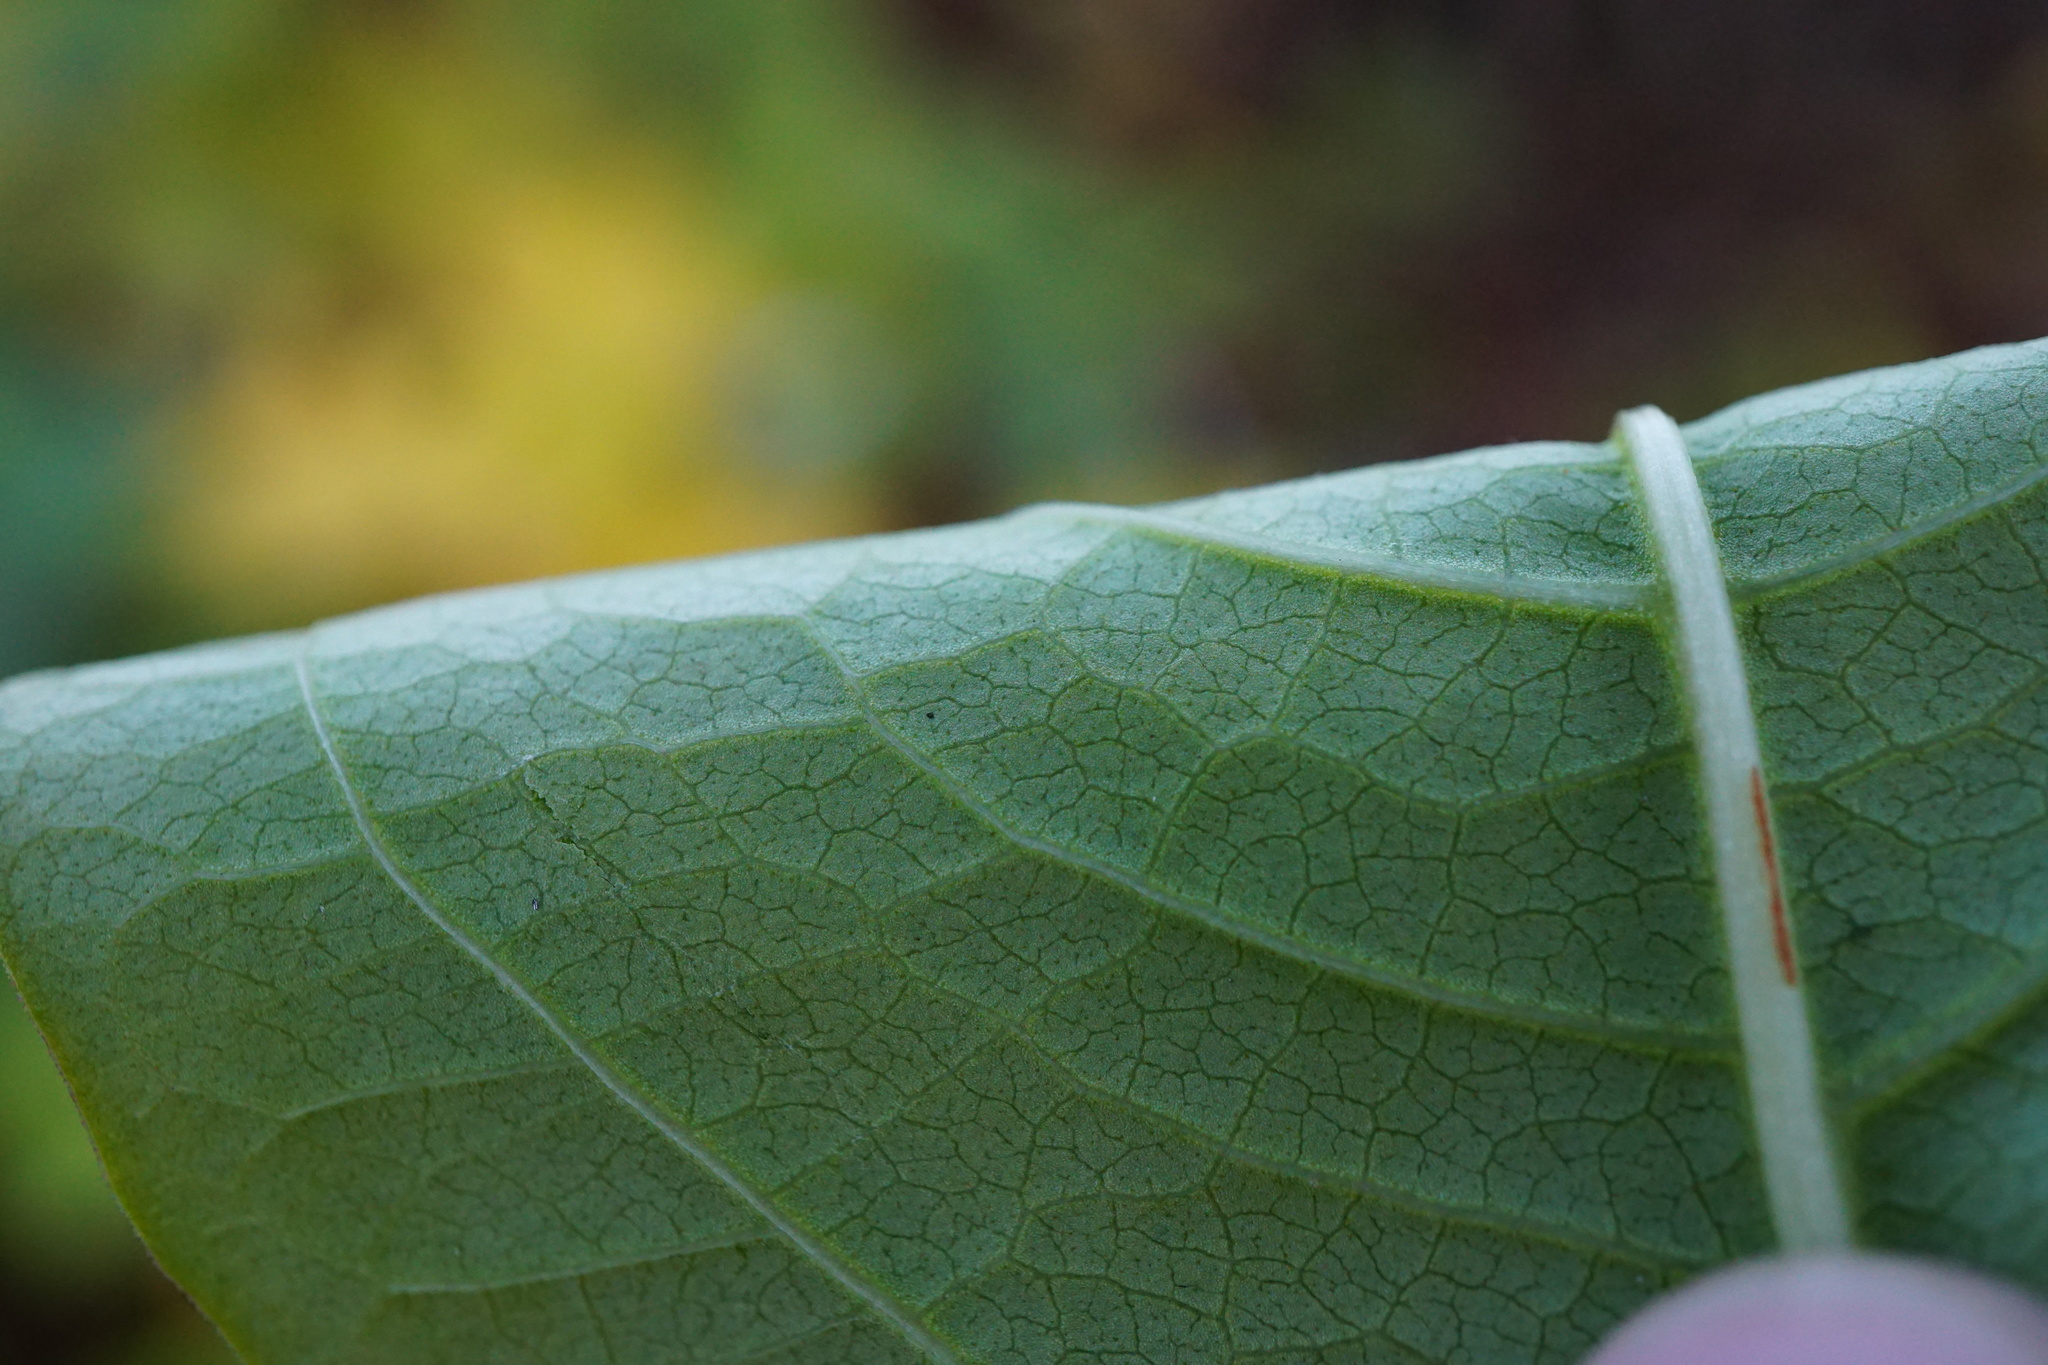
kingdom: Plantae
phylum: Tracheophyta
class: Magnoliopsida
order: Caryophyllales
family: Polygonaceae
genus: Reynoutria
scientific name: Reynoutria japonica
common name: Japanese knotweed
